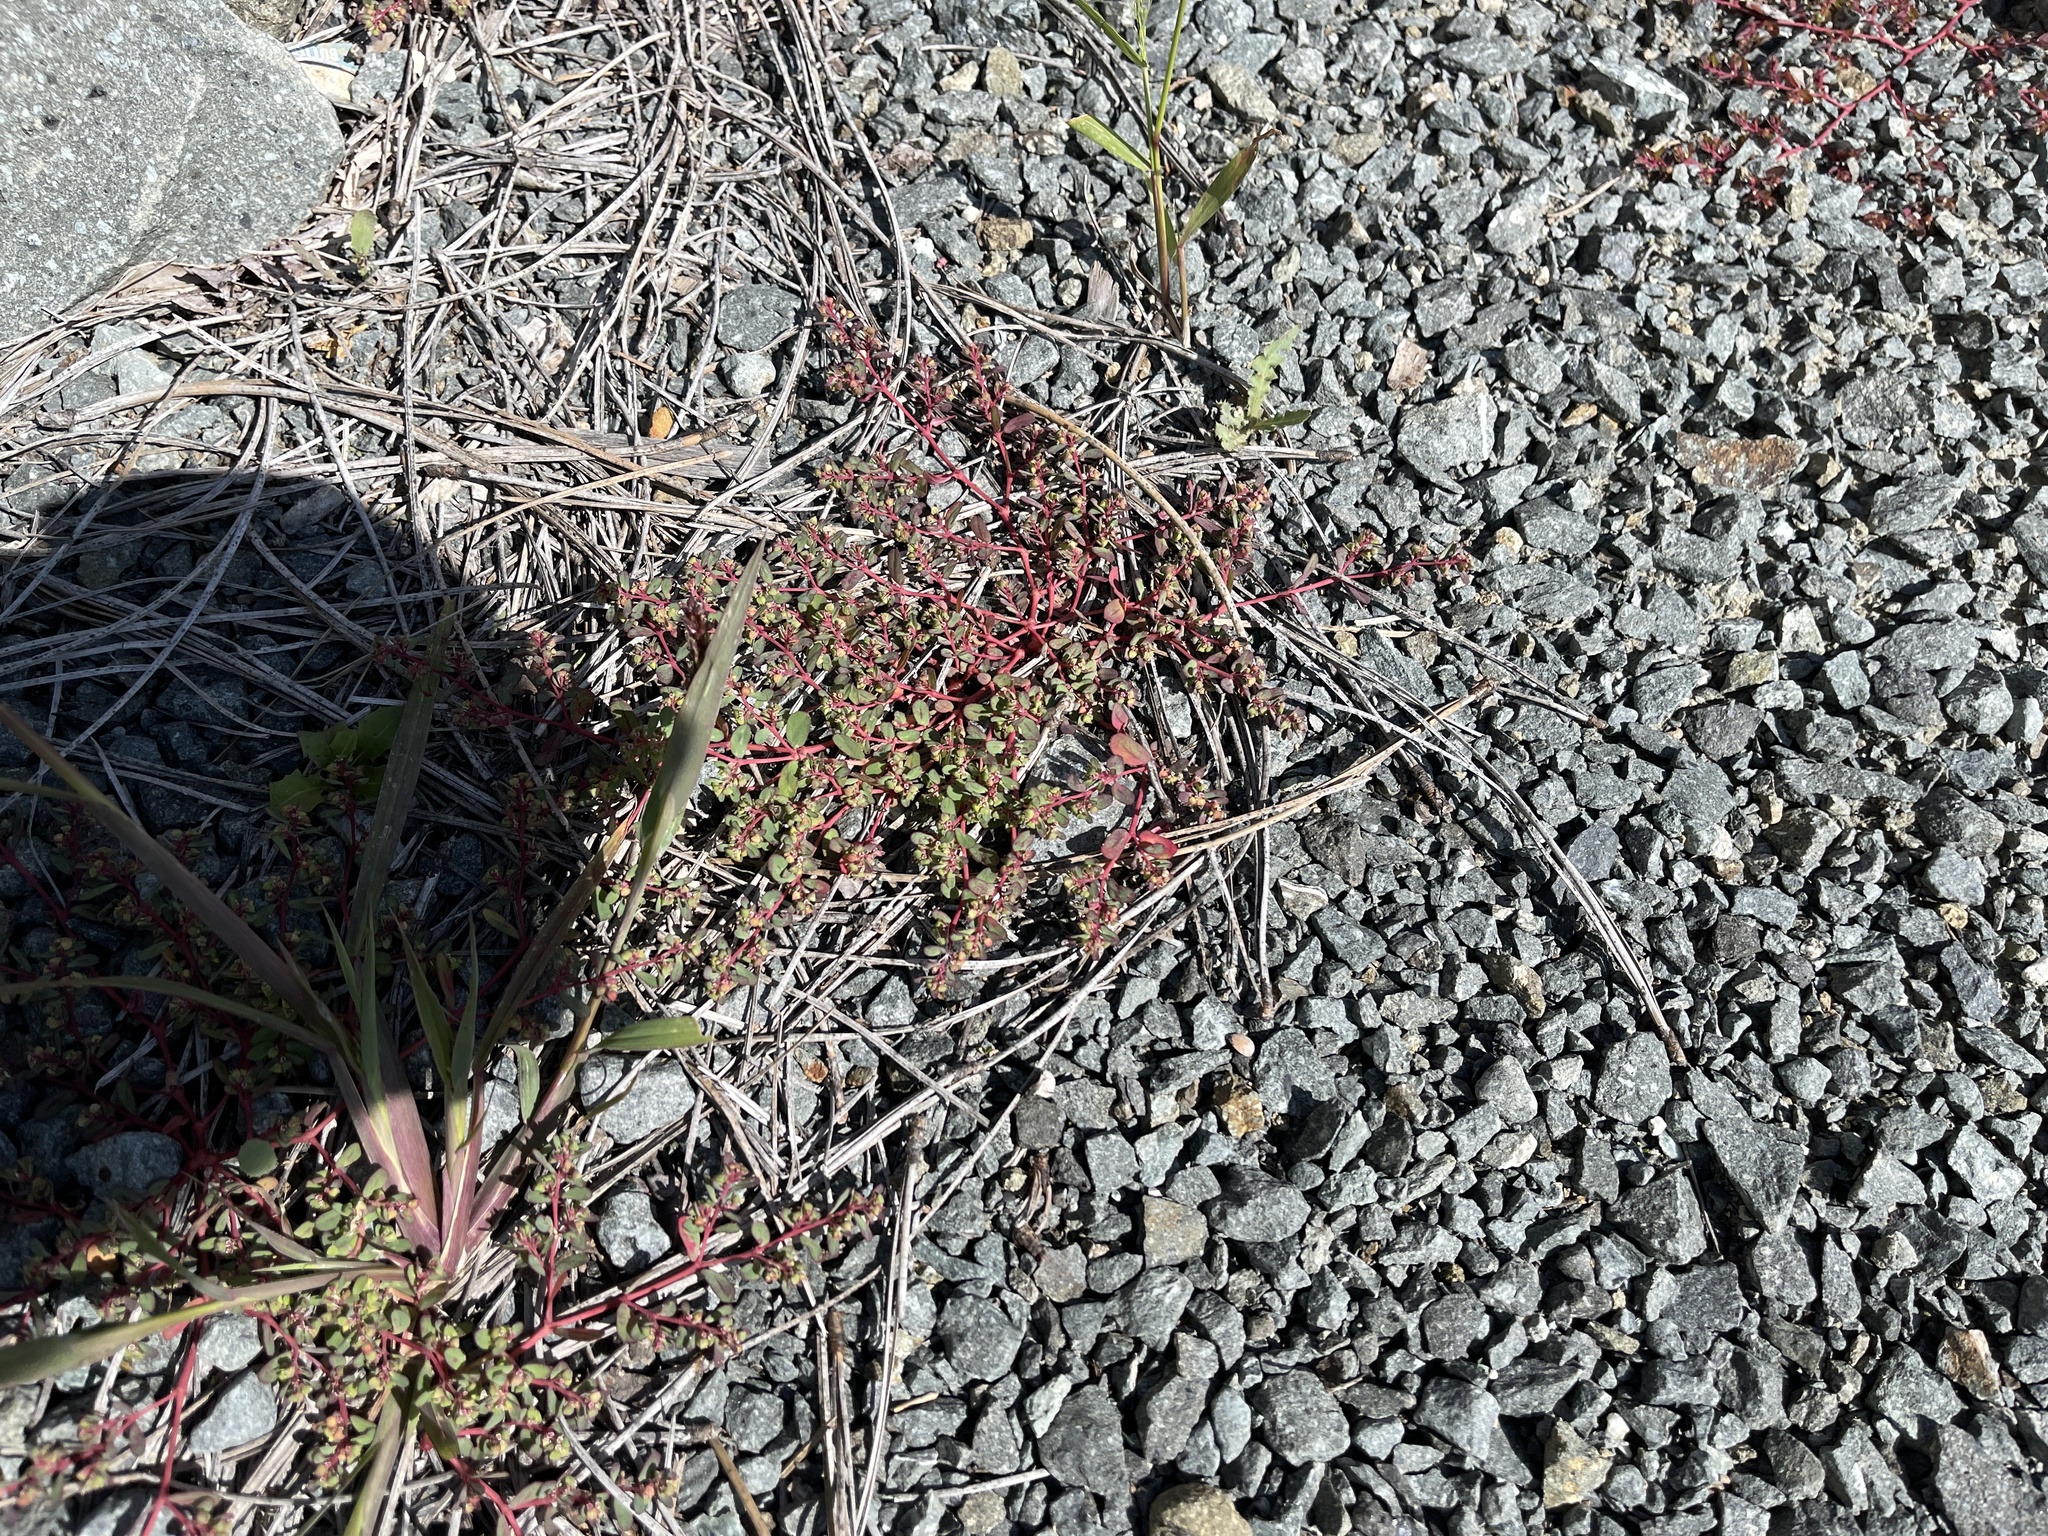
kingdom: Plantae
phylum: Tracheophyta
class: Magnoliopsida
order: Malpighiales
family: Euphorbiaceae
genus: Euphorbia
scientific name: Euphorbia serpillifolia
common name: Thyme-leaf spurge
